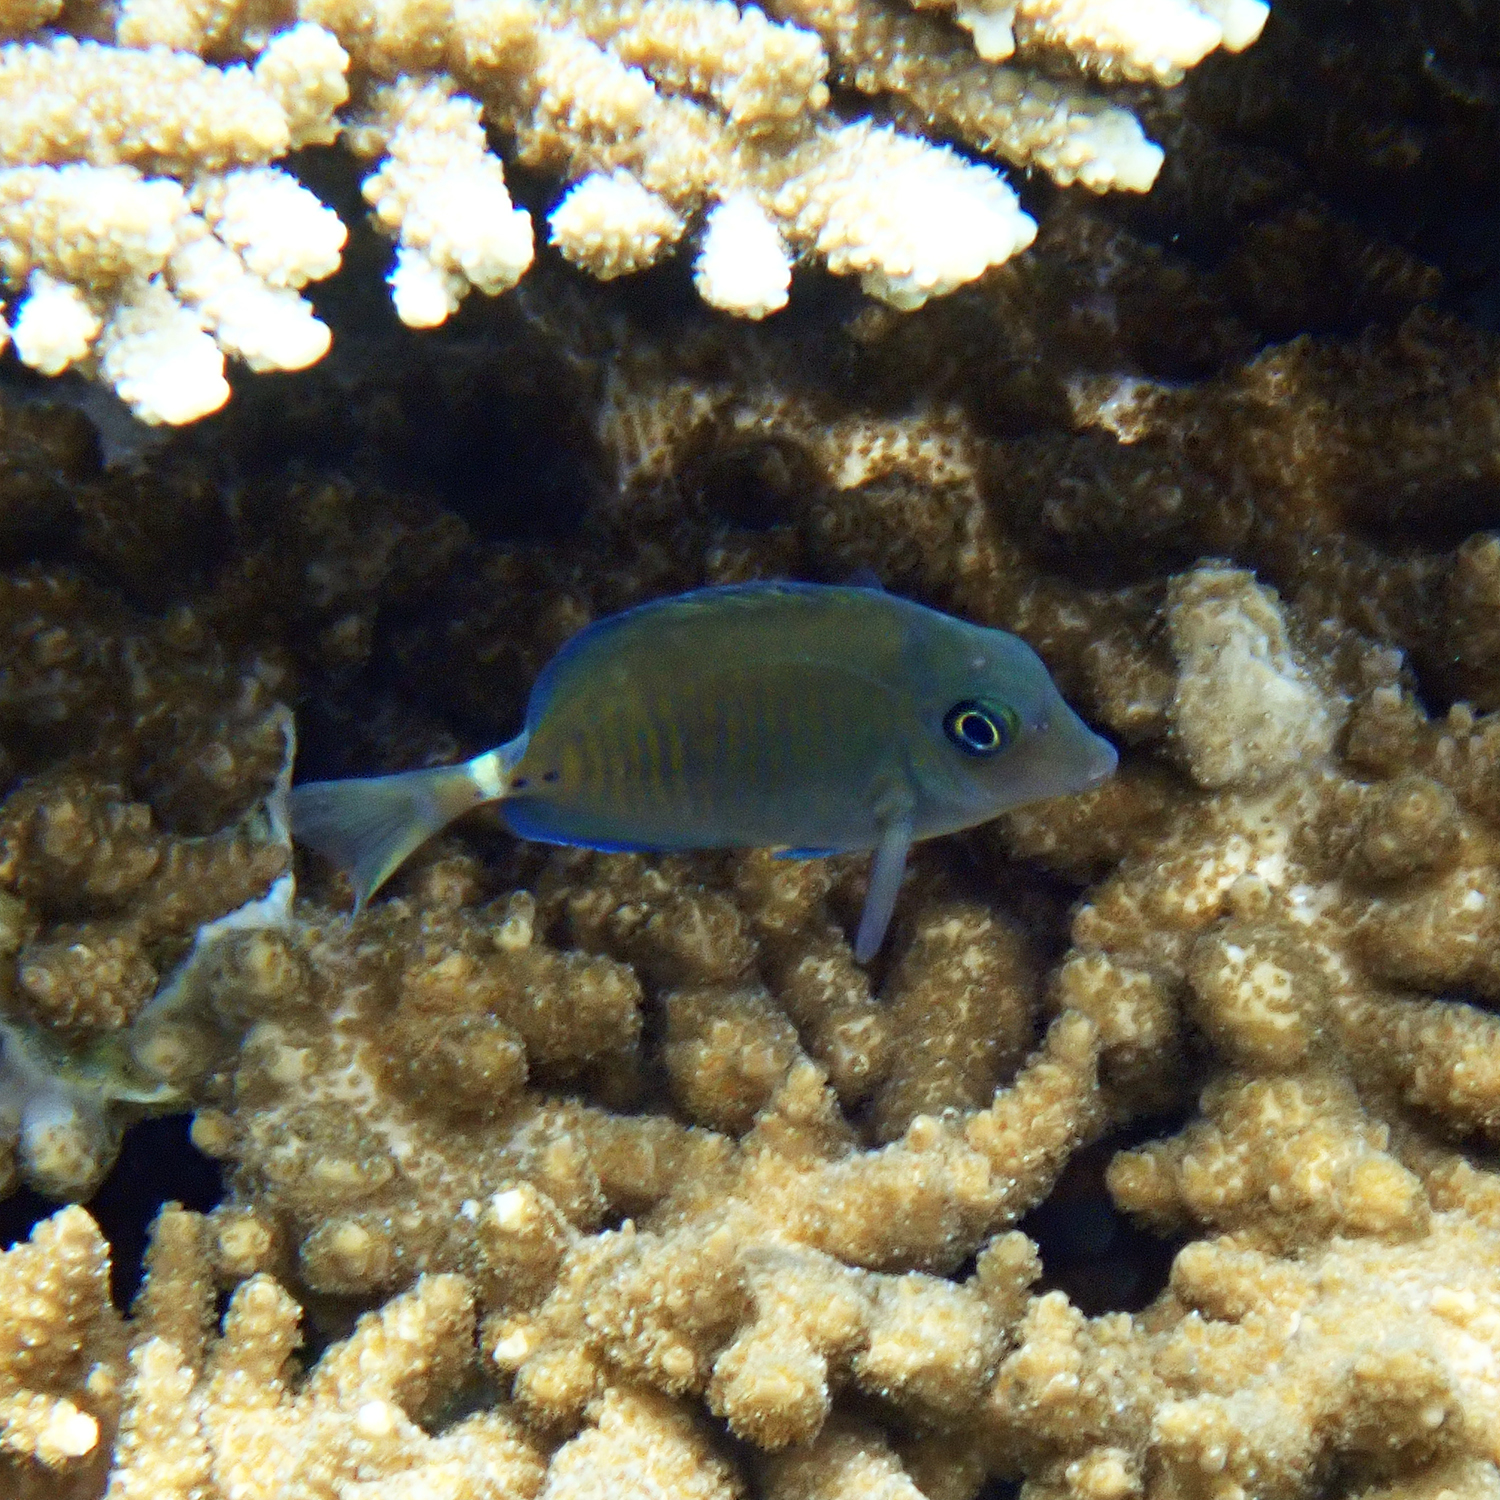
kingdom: Animalia
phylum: Chordata
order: Perciformes
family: Acanthuridae
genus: Prionurus
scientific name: Prionurus maculatus
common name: Yellowspotted sawtail
